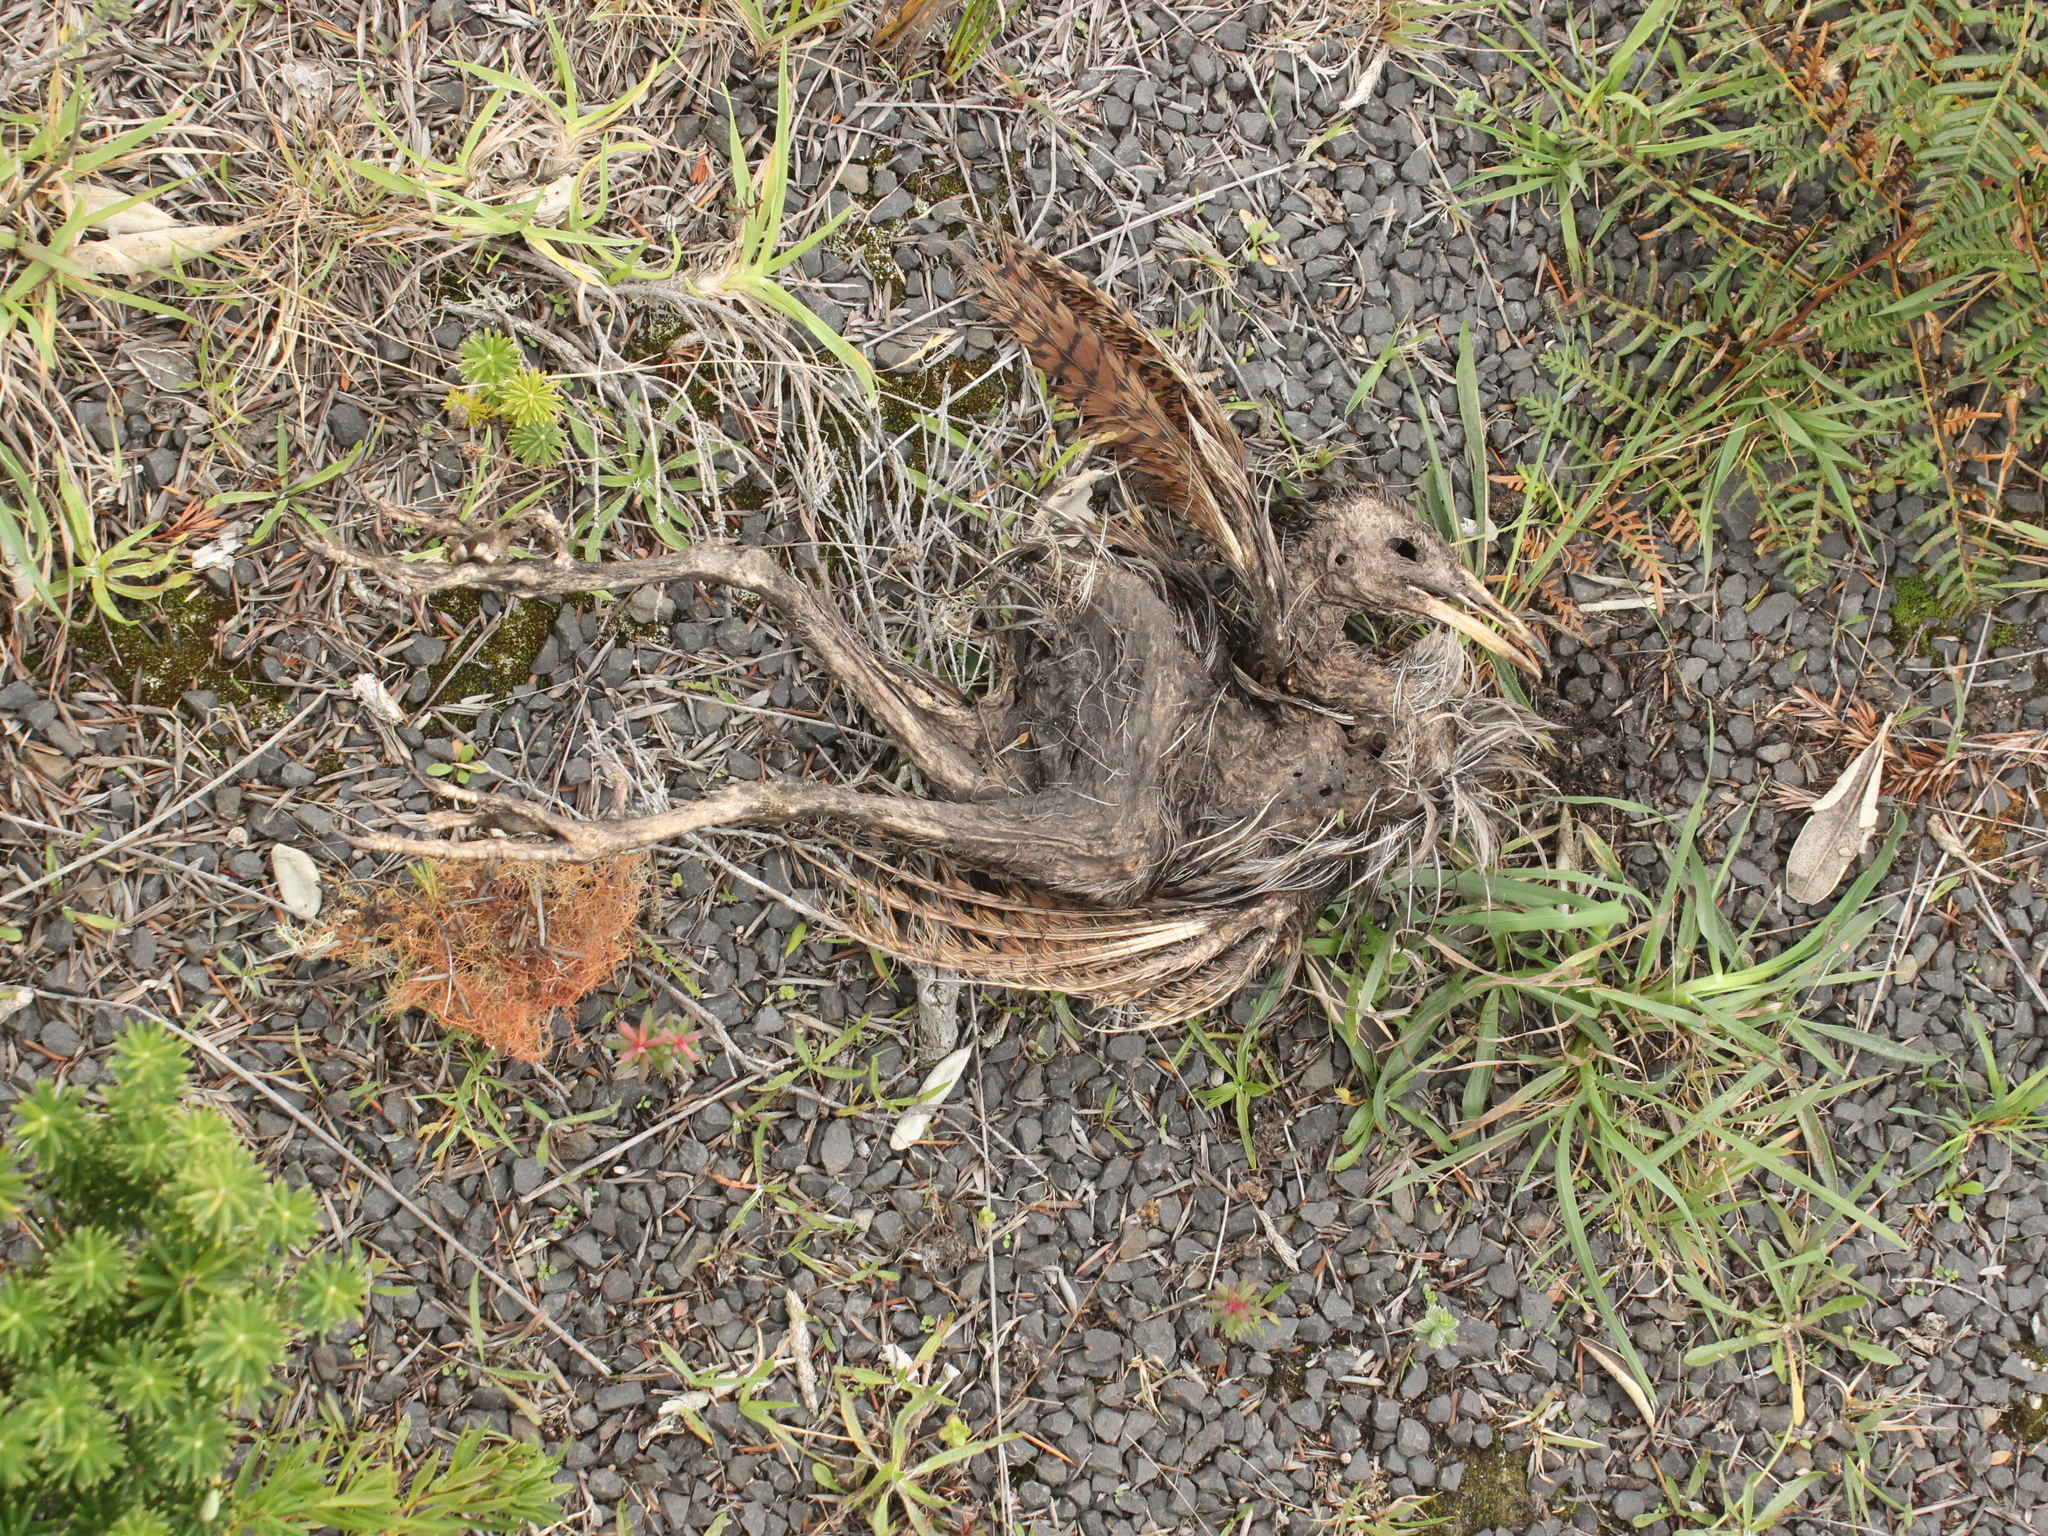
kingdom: Animalia
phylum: Chordata
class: Aves
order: Gruiformes
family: Rallidae
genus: Gallirallus
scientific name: Gallirallus australis
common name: Weka
